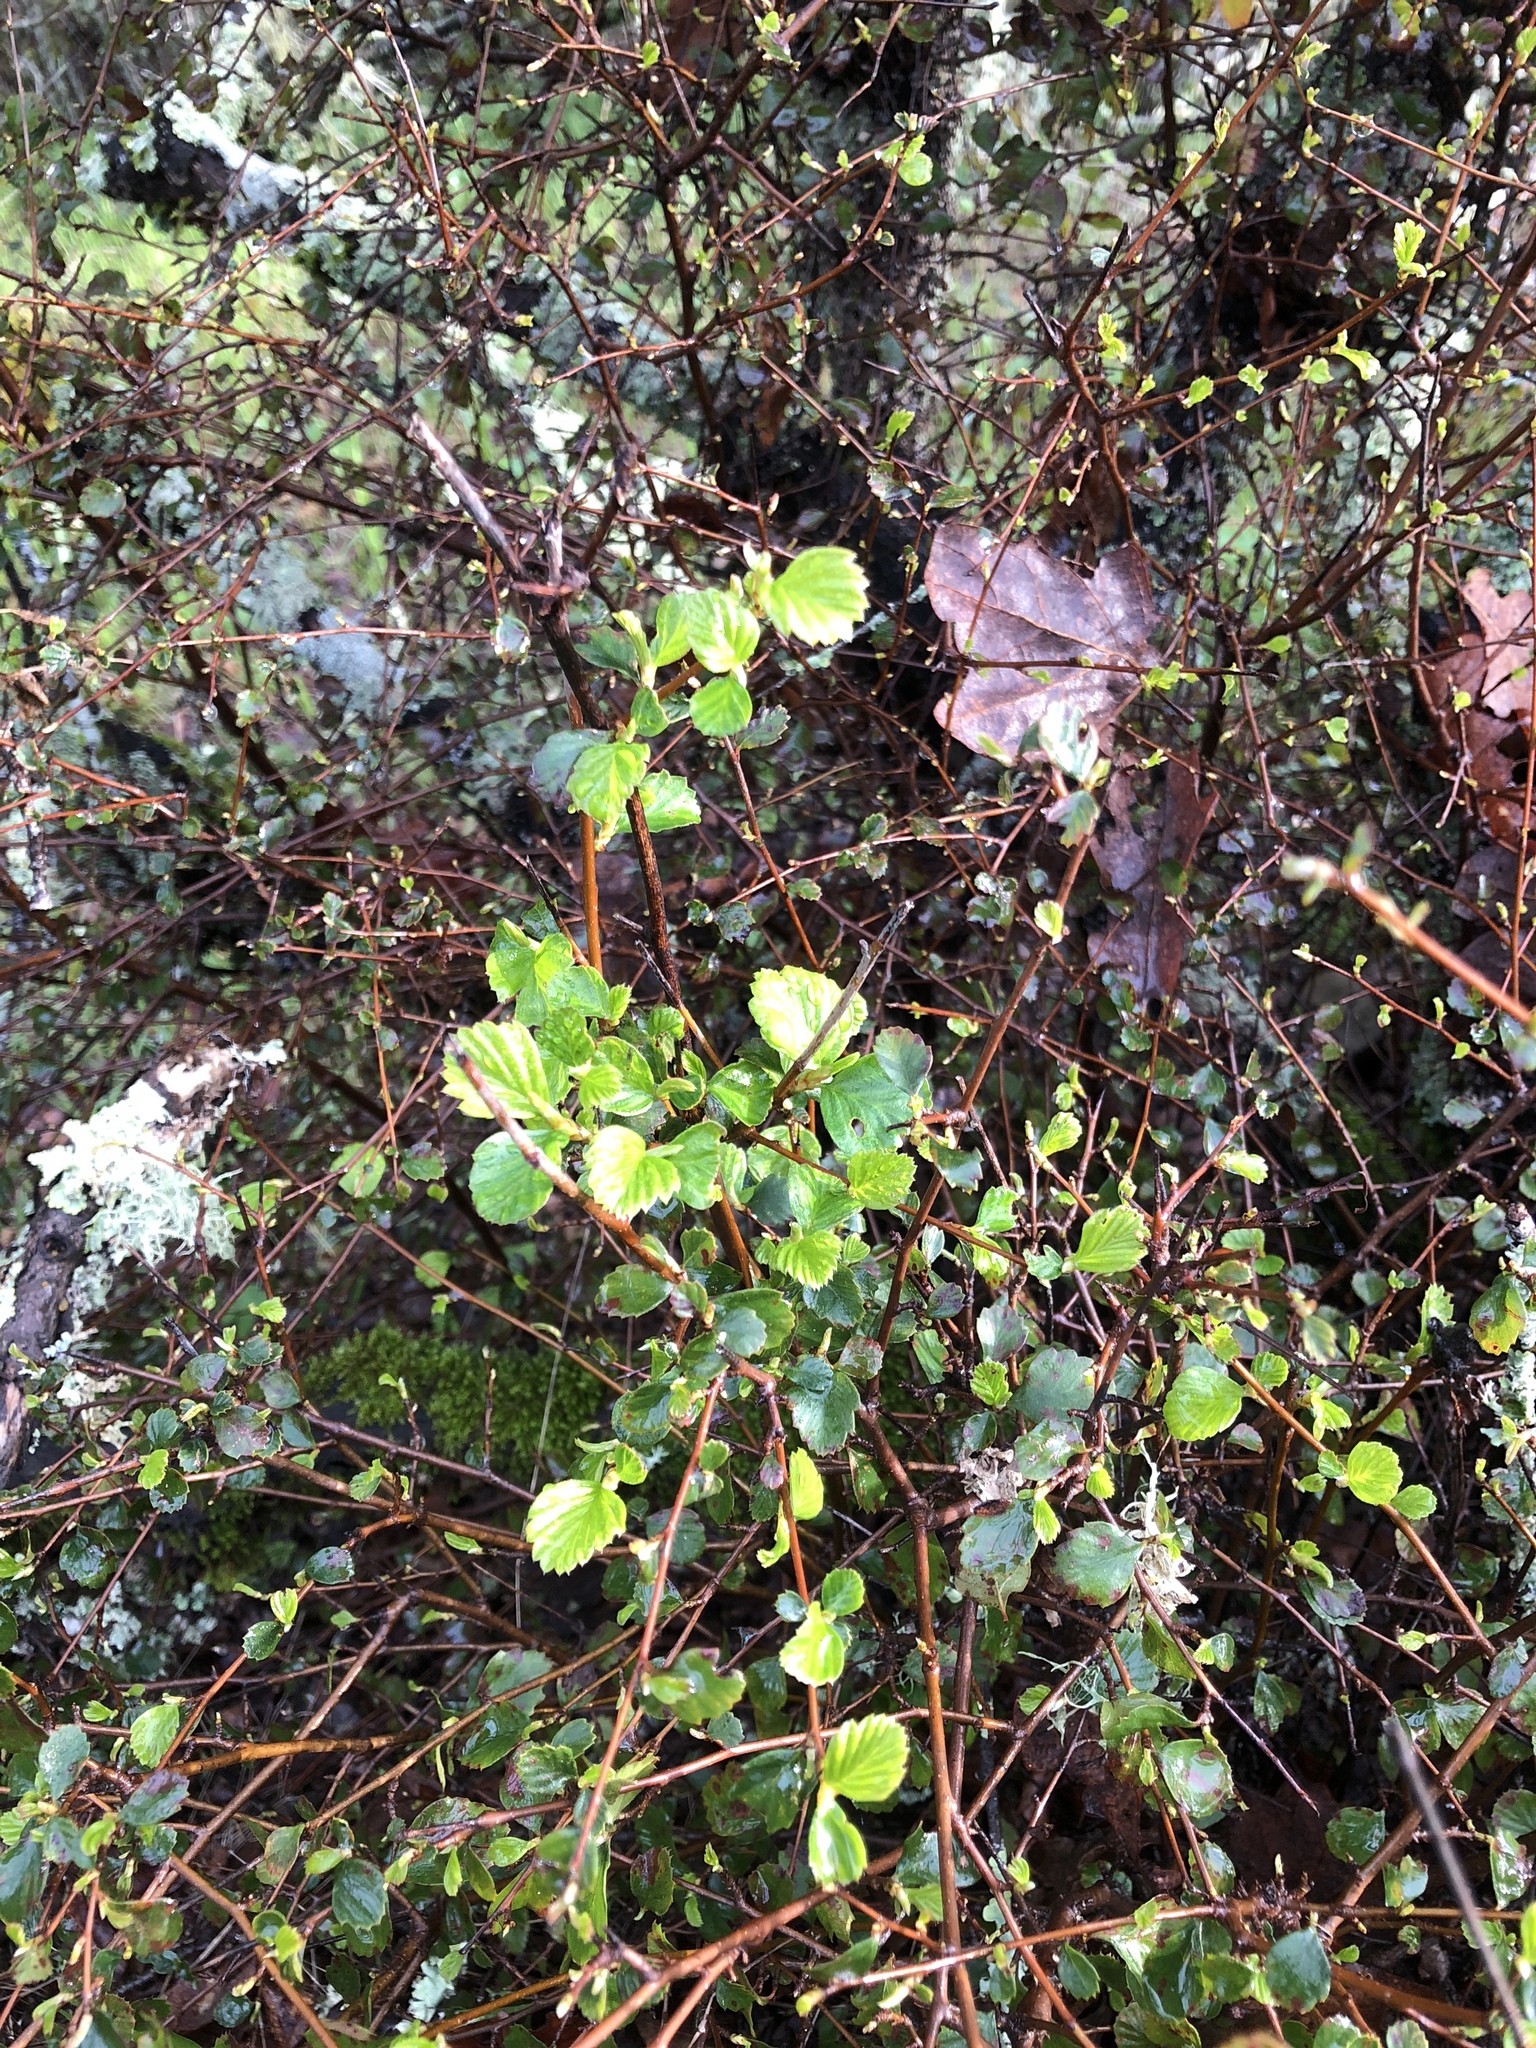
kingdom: Plantae
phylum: Tracheophyta
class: Magnoliopsida
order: Rosales
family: Rosaceae
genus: Cercocarpus
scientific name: Cercocarpus betuloides
